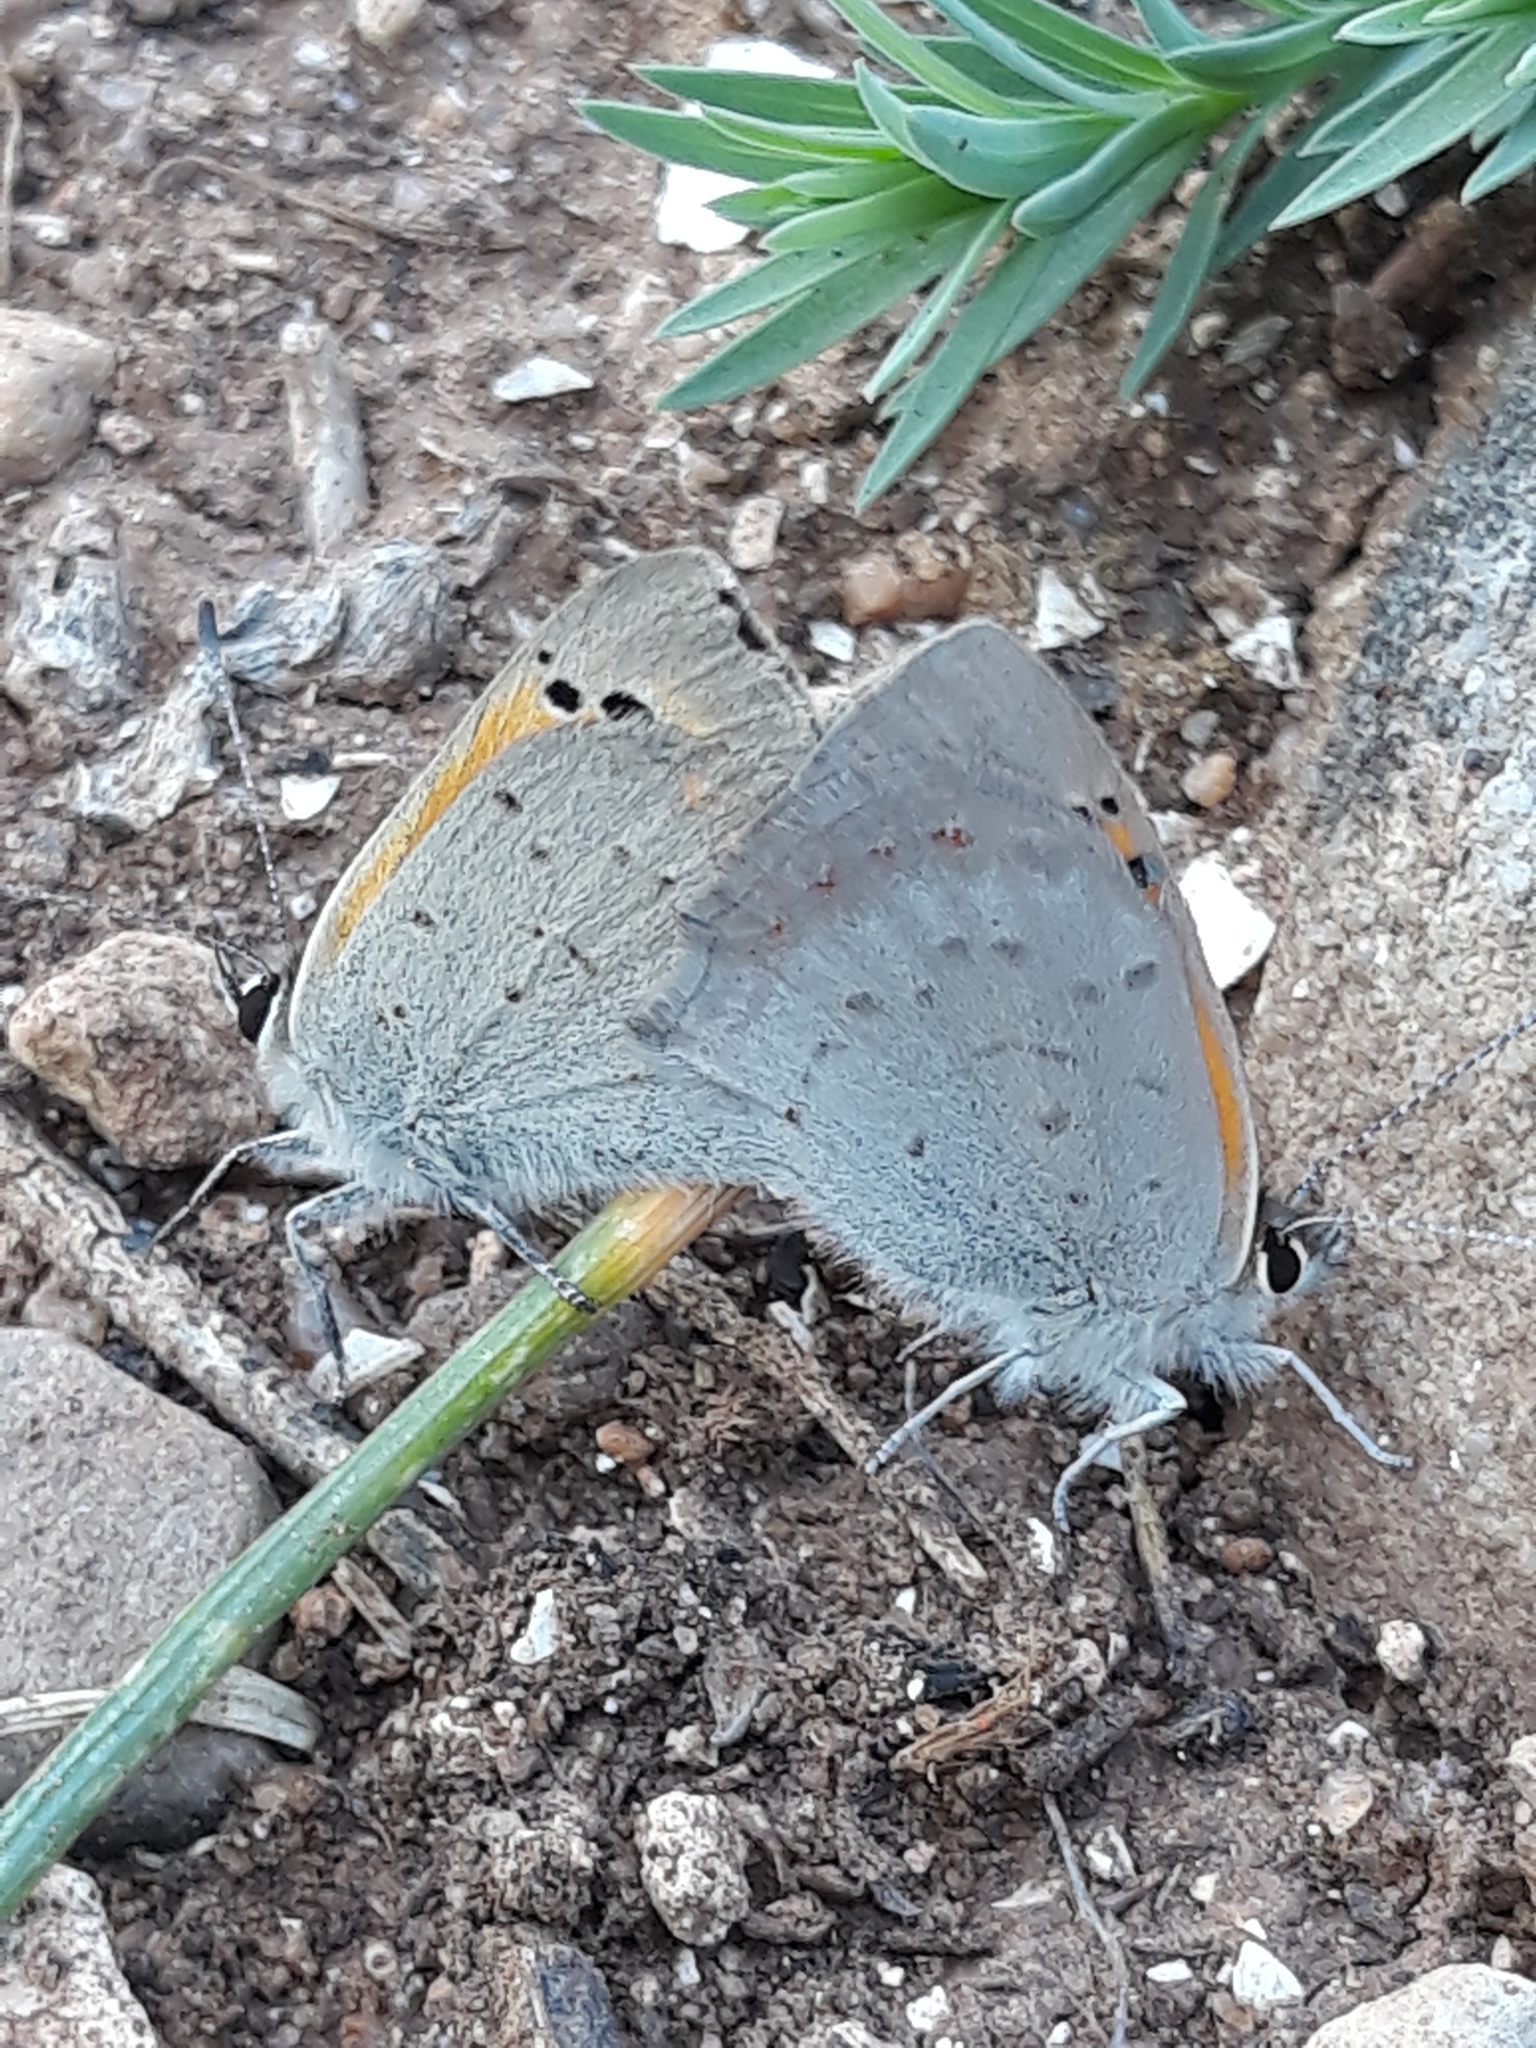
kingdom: Animalia
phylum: Arthropoda
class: Insecta
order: Lepidoptera
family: Lycaenidae
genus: Lycaena
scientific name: Lycaena phlaeas
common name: Small copper
